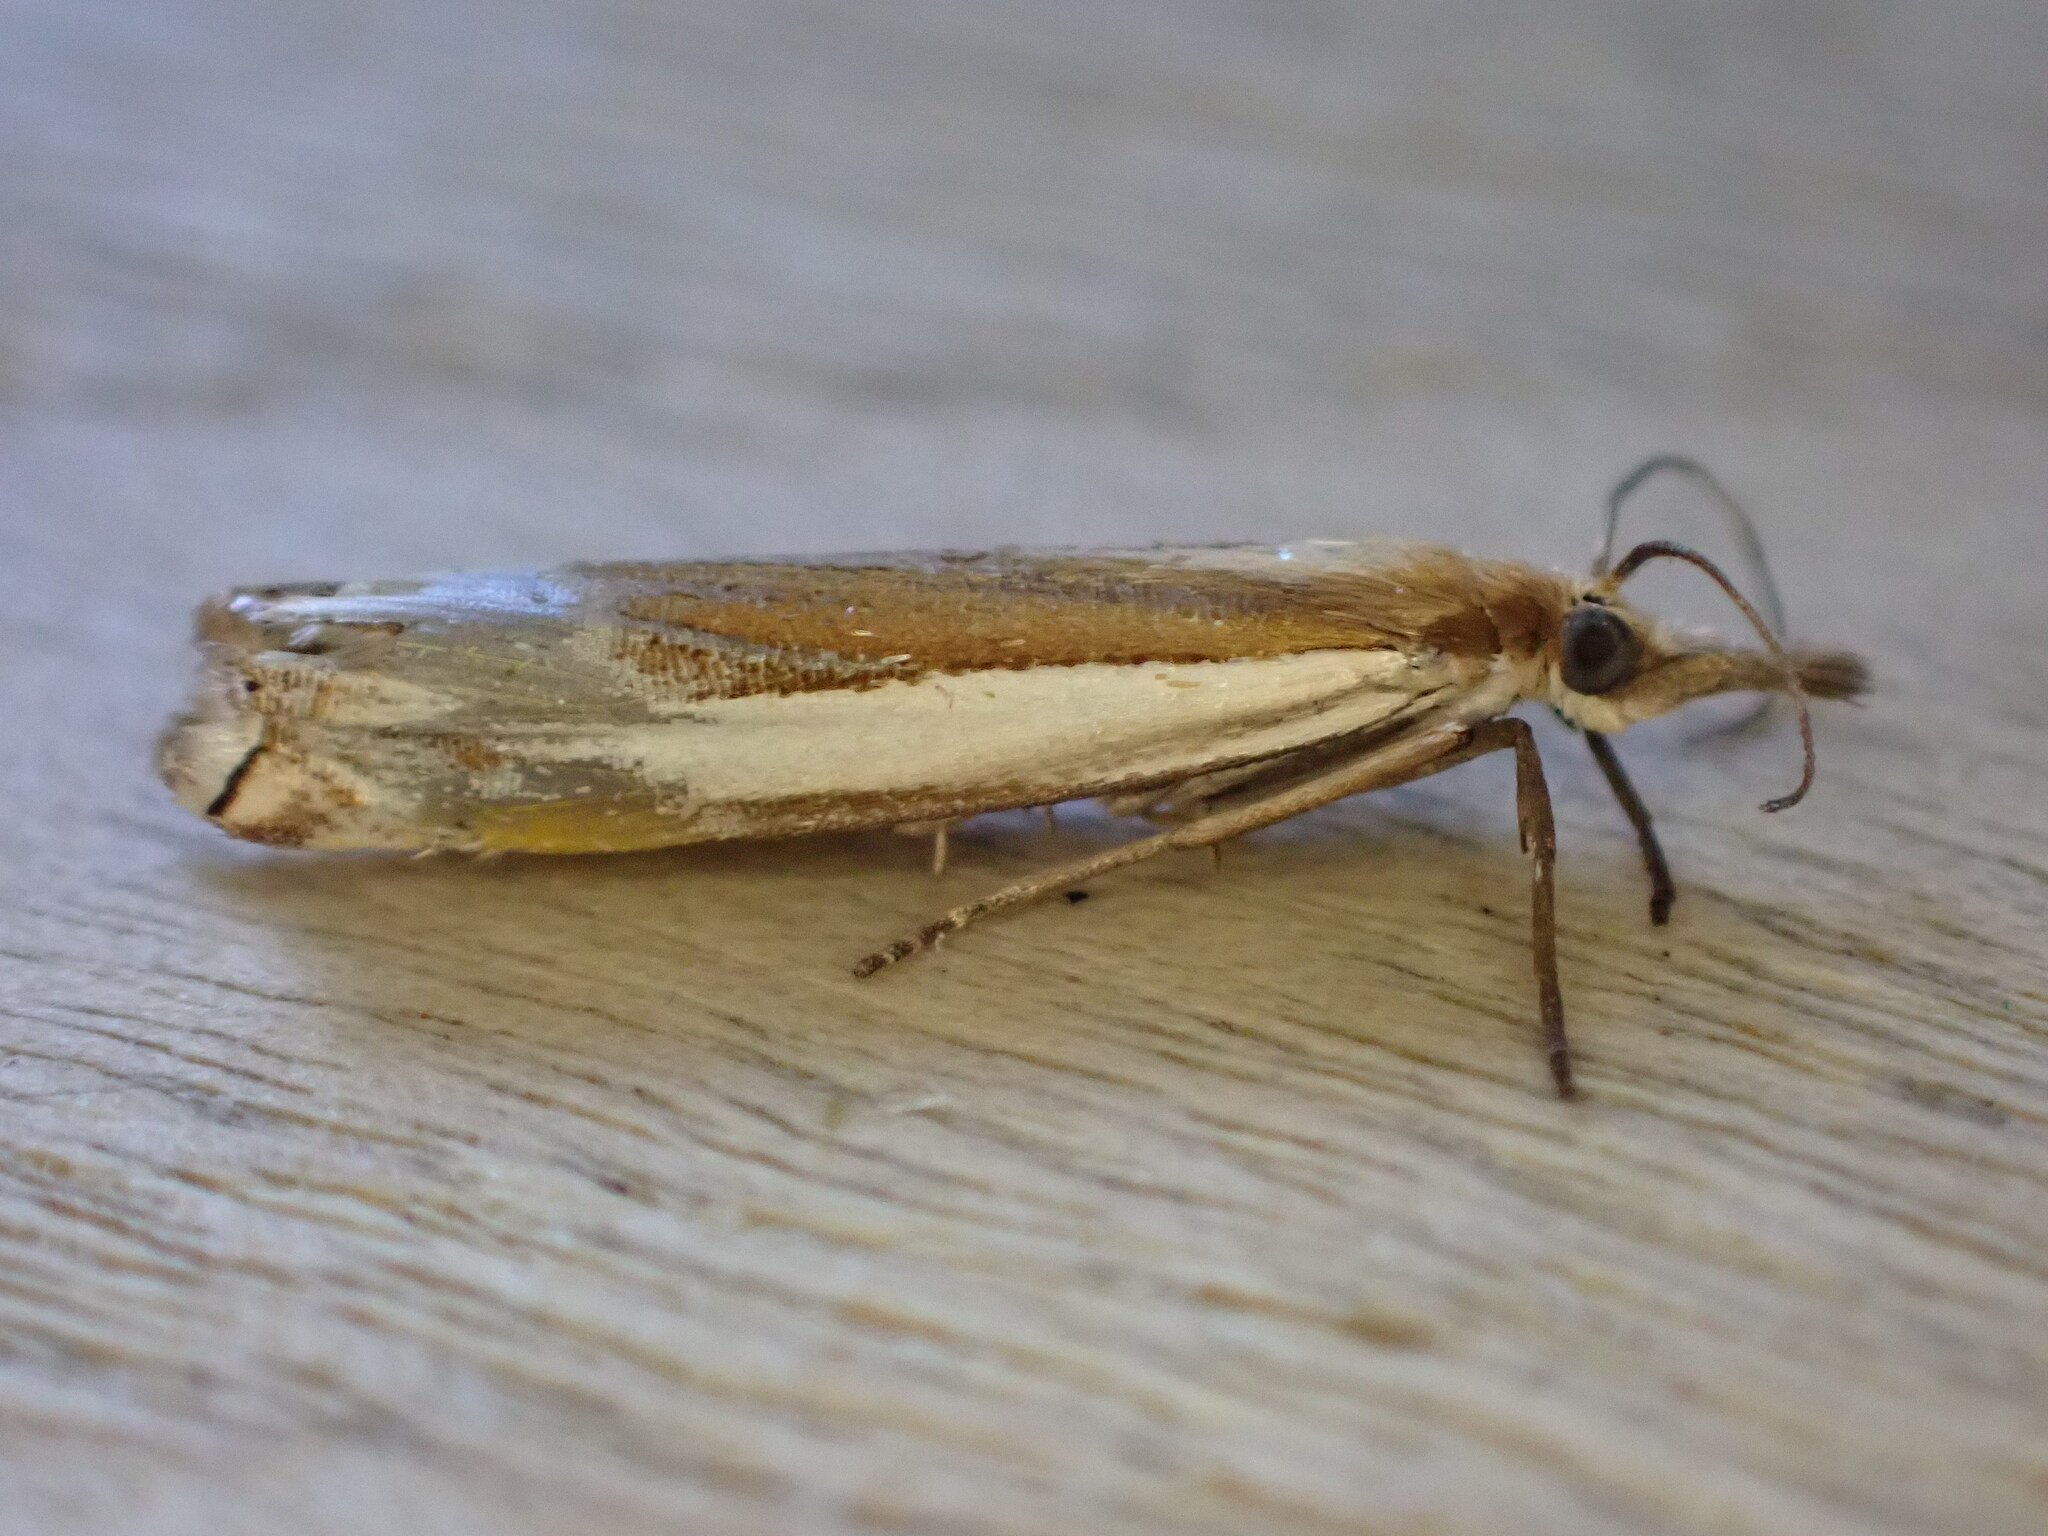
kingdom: Animalia
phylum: Arthropoda
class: Insecta
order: Lepidoptera
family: Crambidae
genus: Crambus
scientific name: Crambus pascuella
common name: Inlaid grass-veneer
